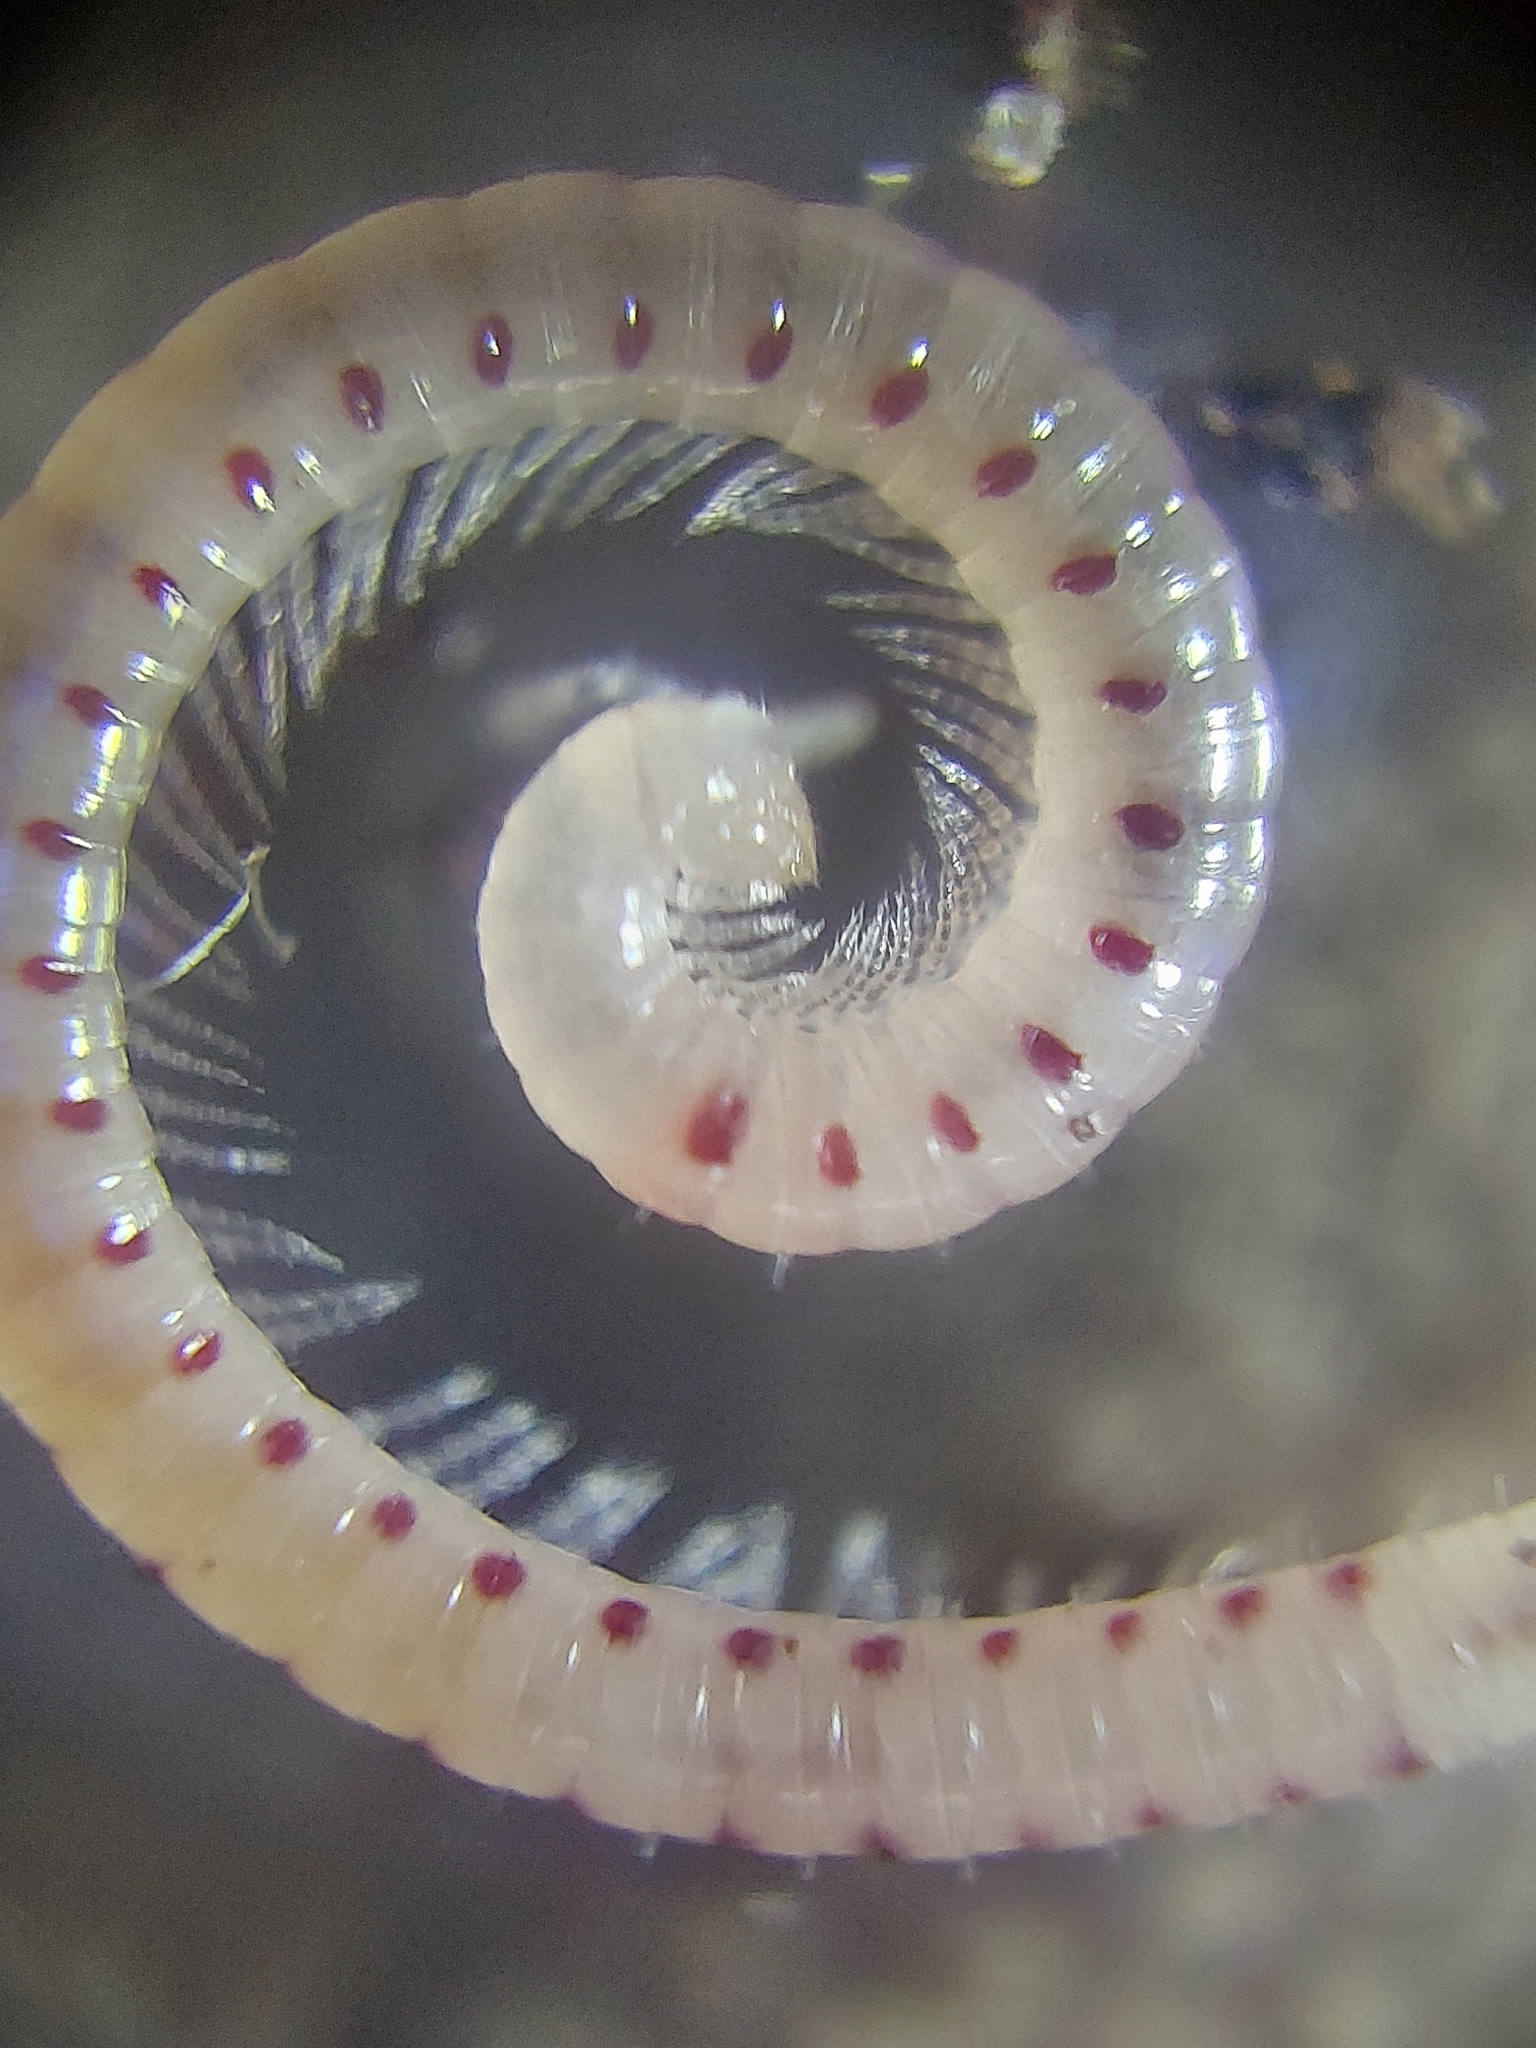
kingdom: Animalia
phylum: Arthropoda
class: Diplopoda
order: Julida
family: Blaniulidae
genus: Blaniulus
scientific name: Blaniulus guttulatus
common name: Spotted snake millipede
